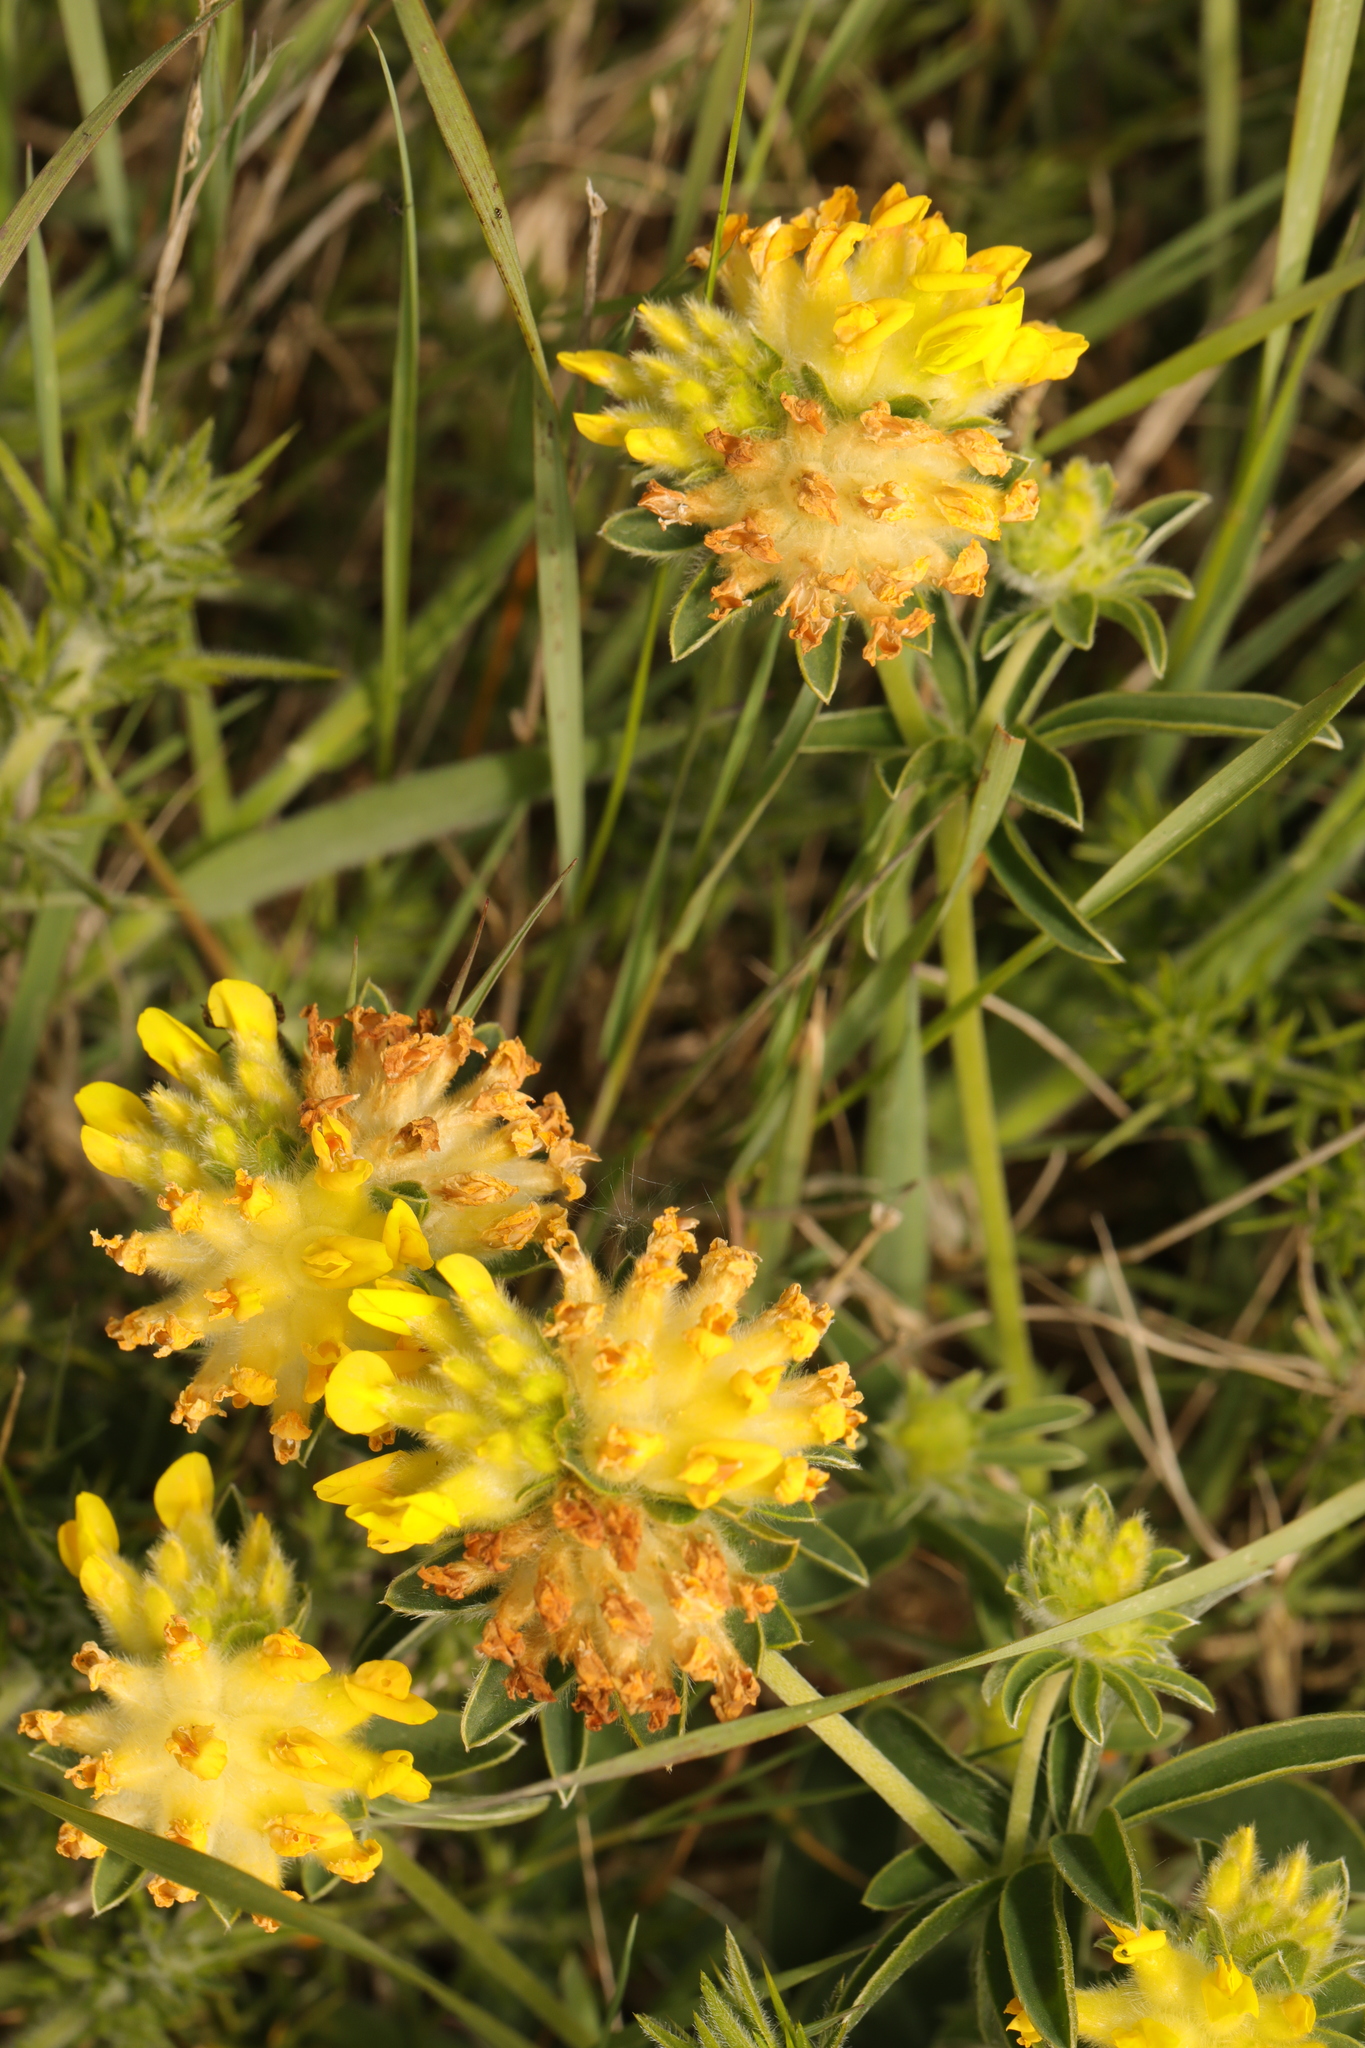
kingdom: Plantae
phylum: Tracheophyta
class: Magnoliopsida
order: Fabales
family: Fabaceae
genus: Anthyllis
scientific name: Anthyllis vulneraria
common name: Kidney vetch
